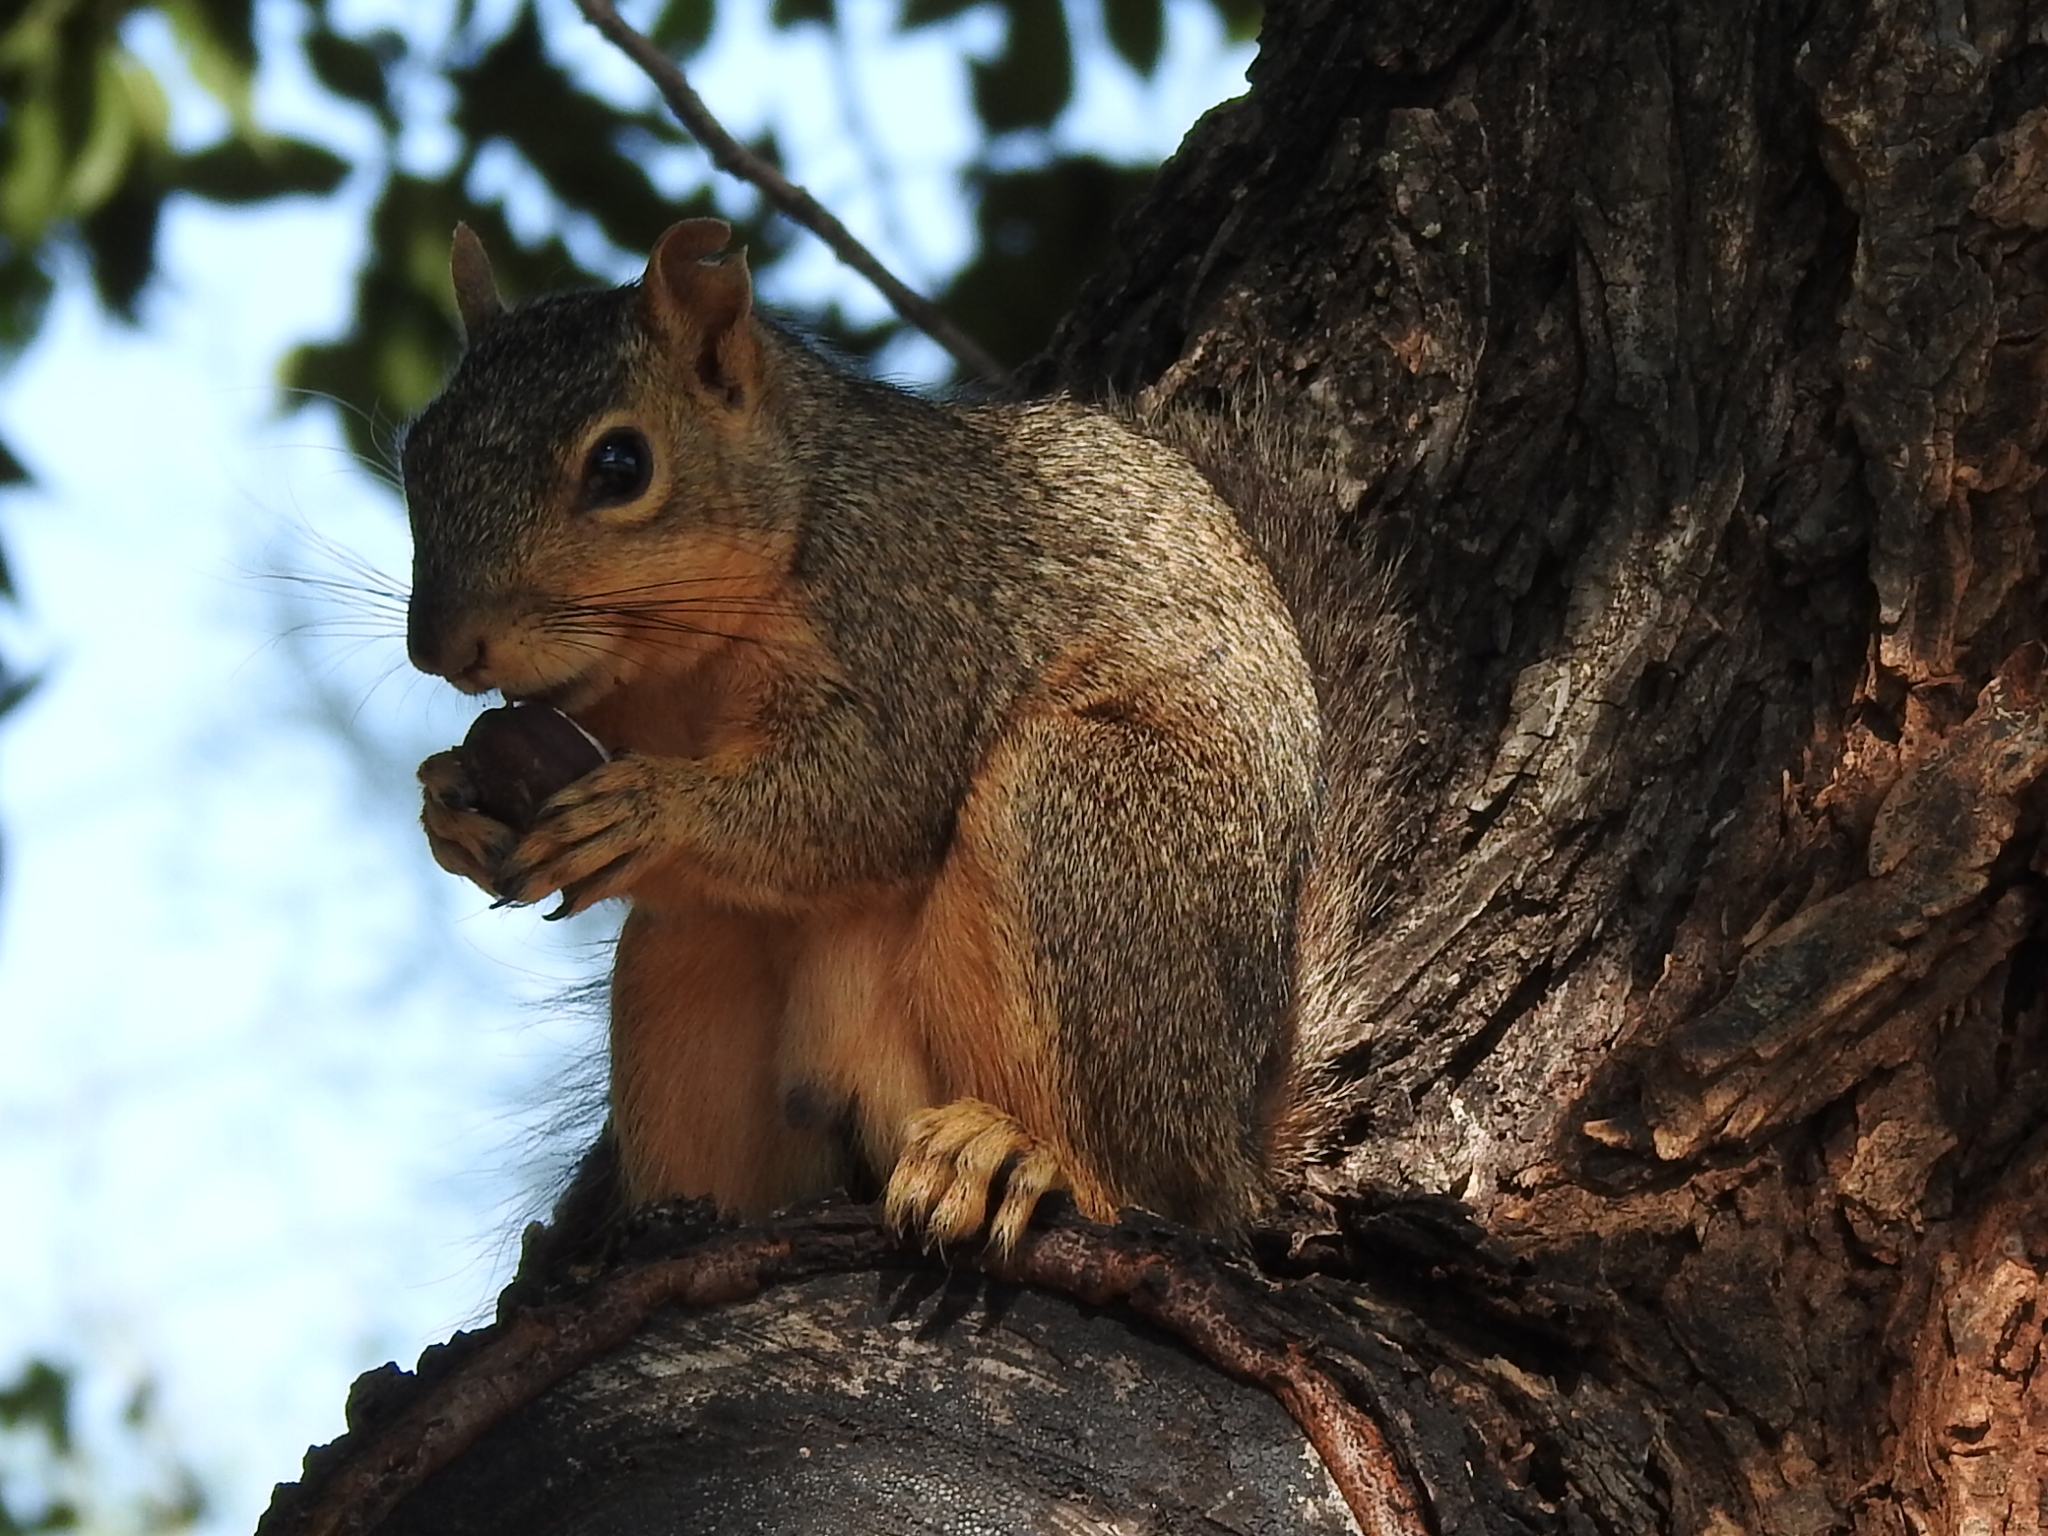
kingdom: Animalia
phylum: Chordata
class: Mammalia
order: Rodentia
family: Sciuridae
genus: Sciurus
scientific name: Sciurus niger
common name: Fox squirrel
